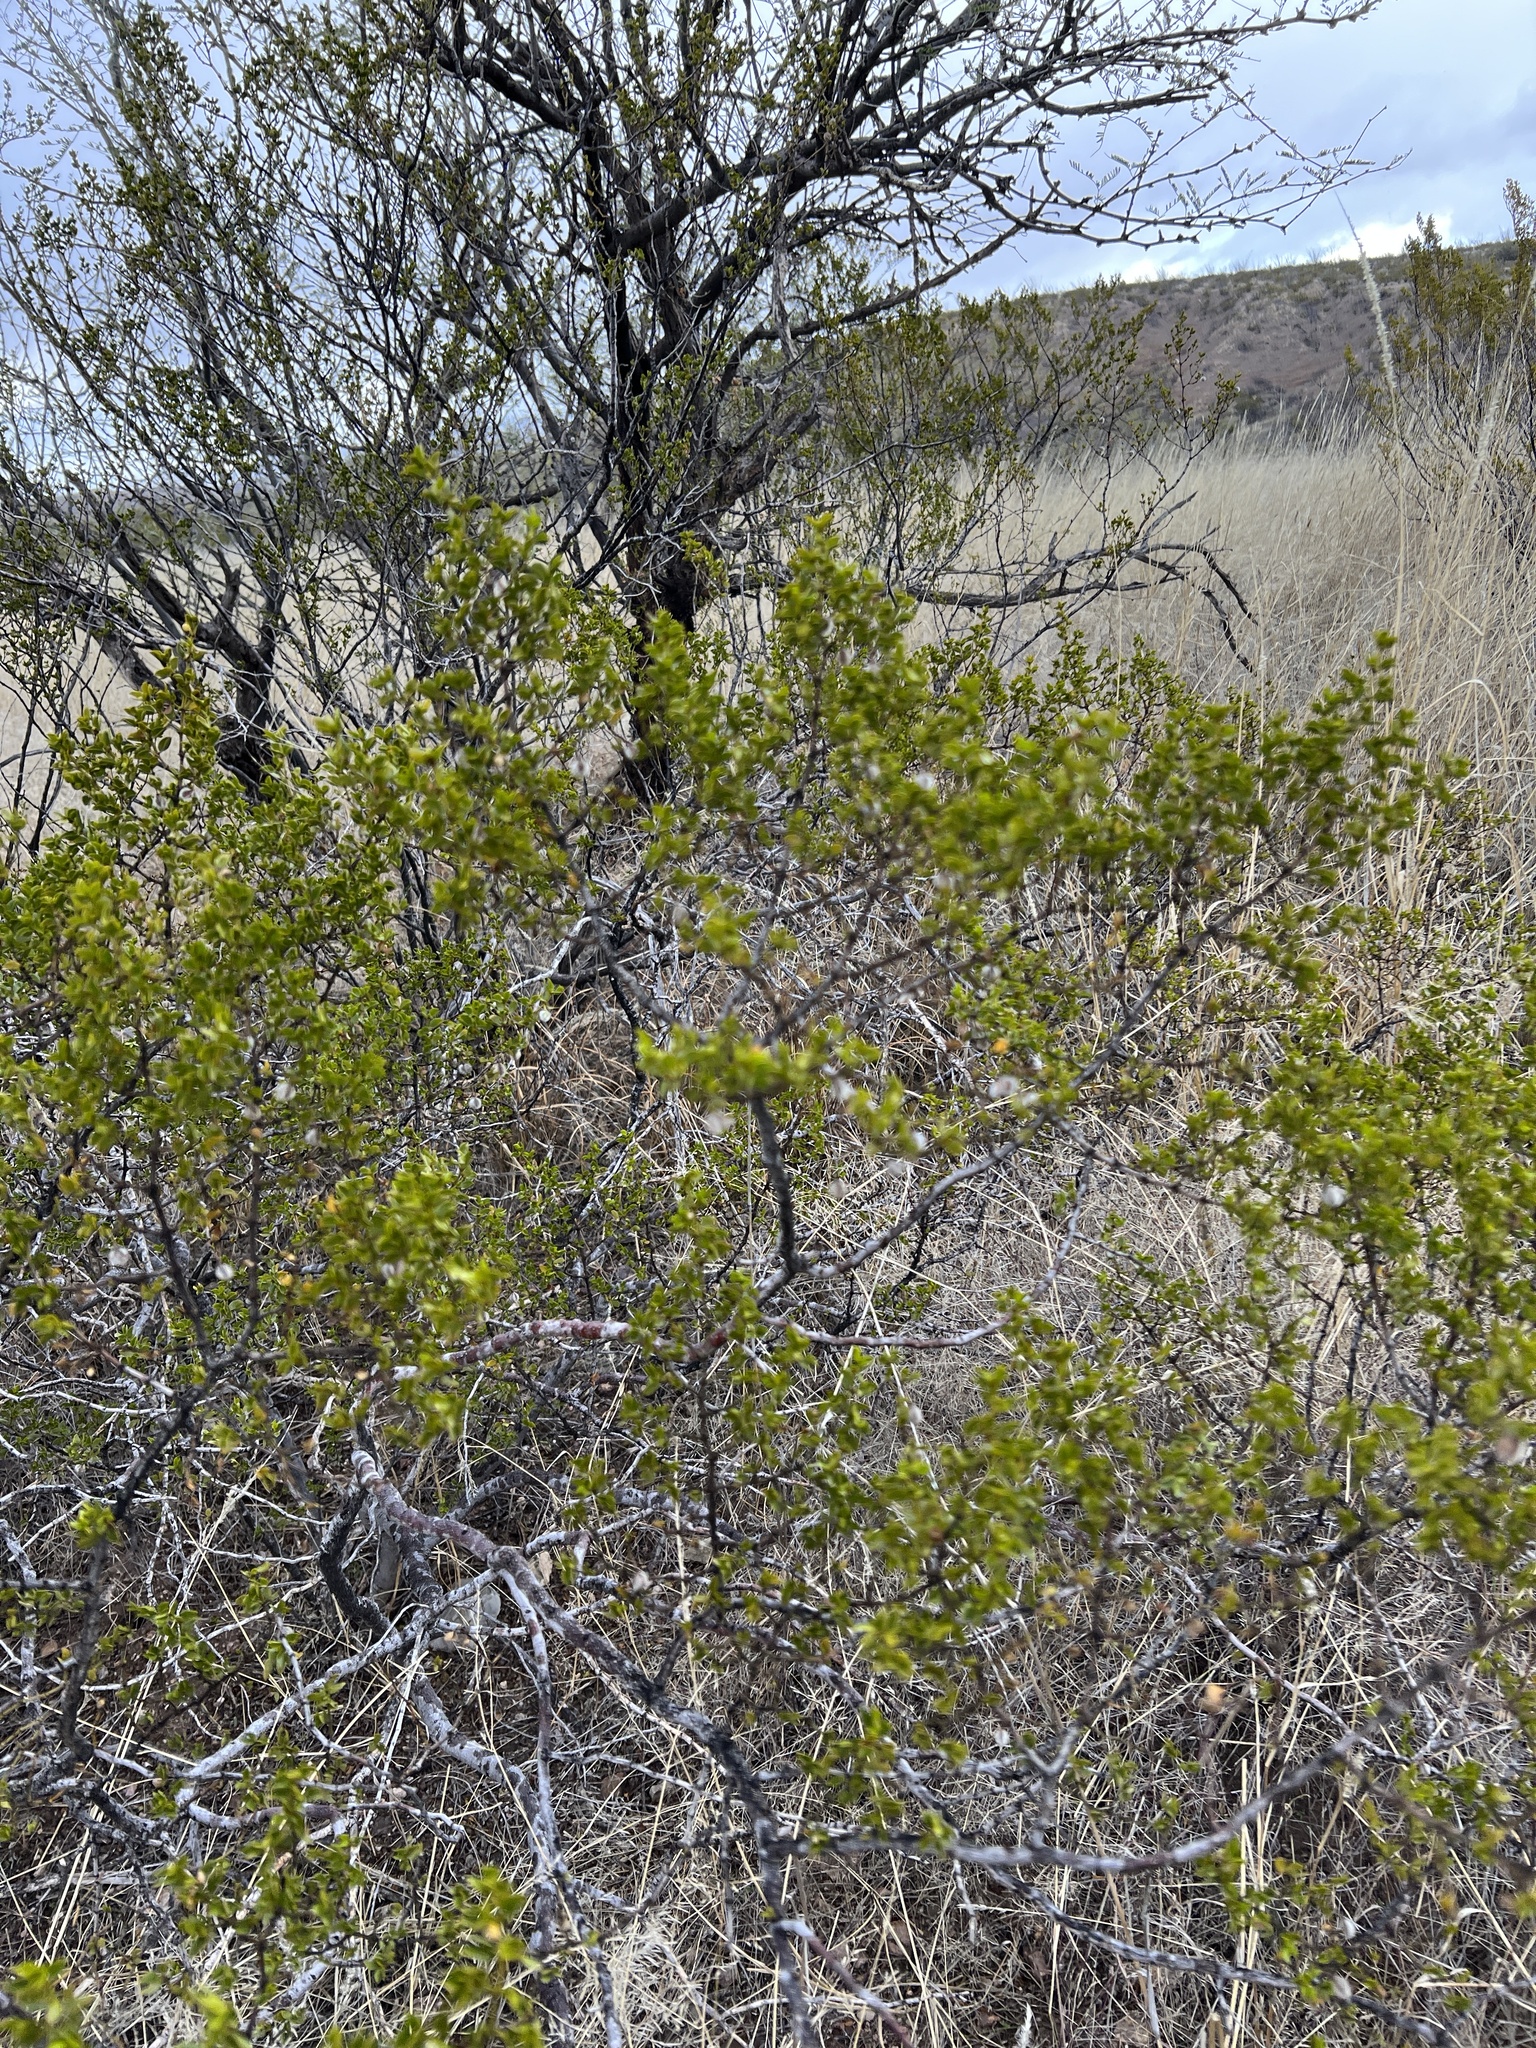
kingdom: Plantae
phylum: Tracheophyta
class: Magnoliopsida
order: Zygophyllales
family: Zygophyllaceae
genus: Larrea
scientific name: Larrea tridentata
